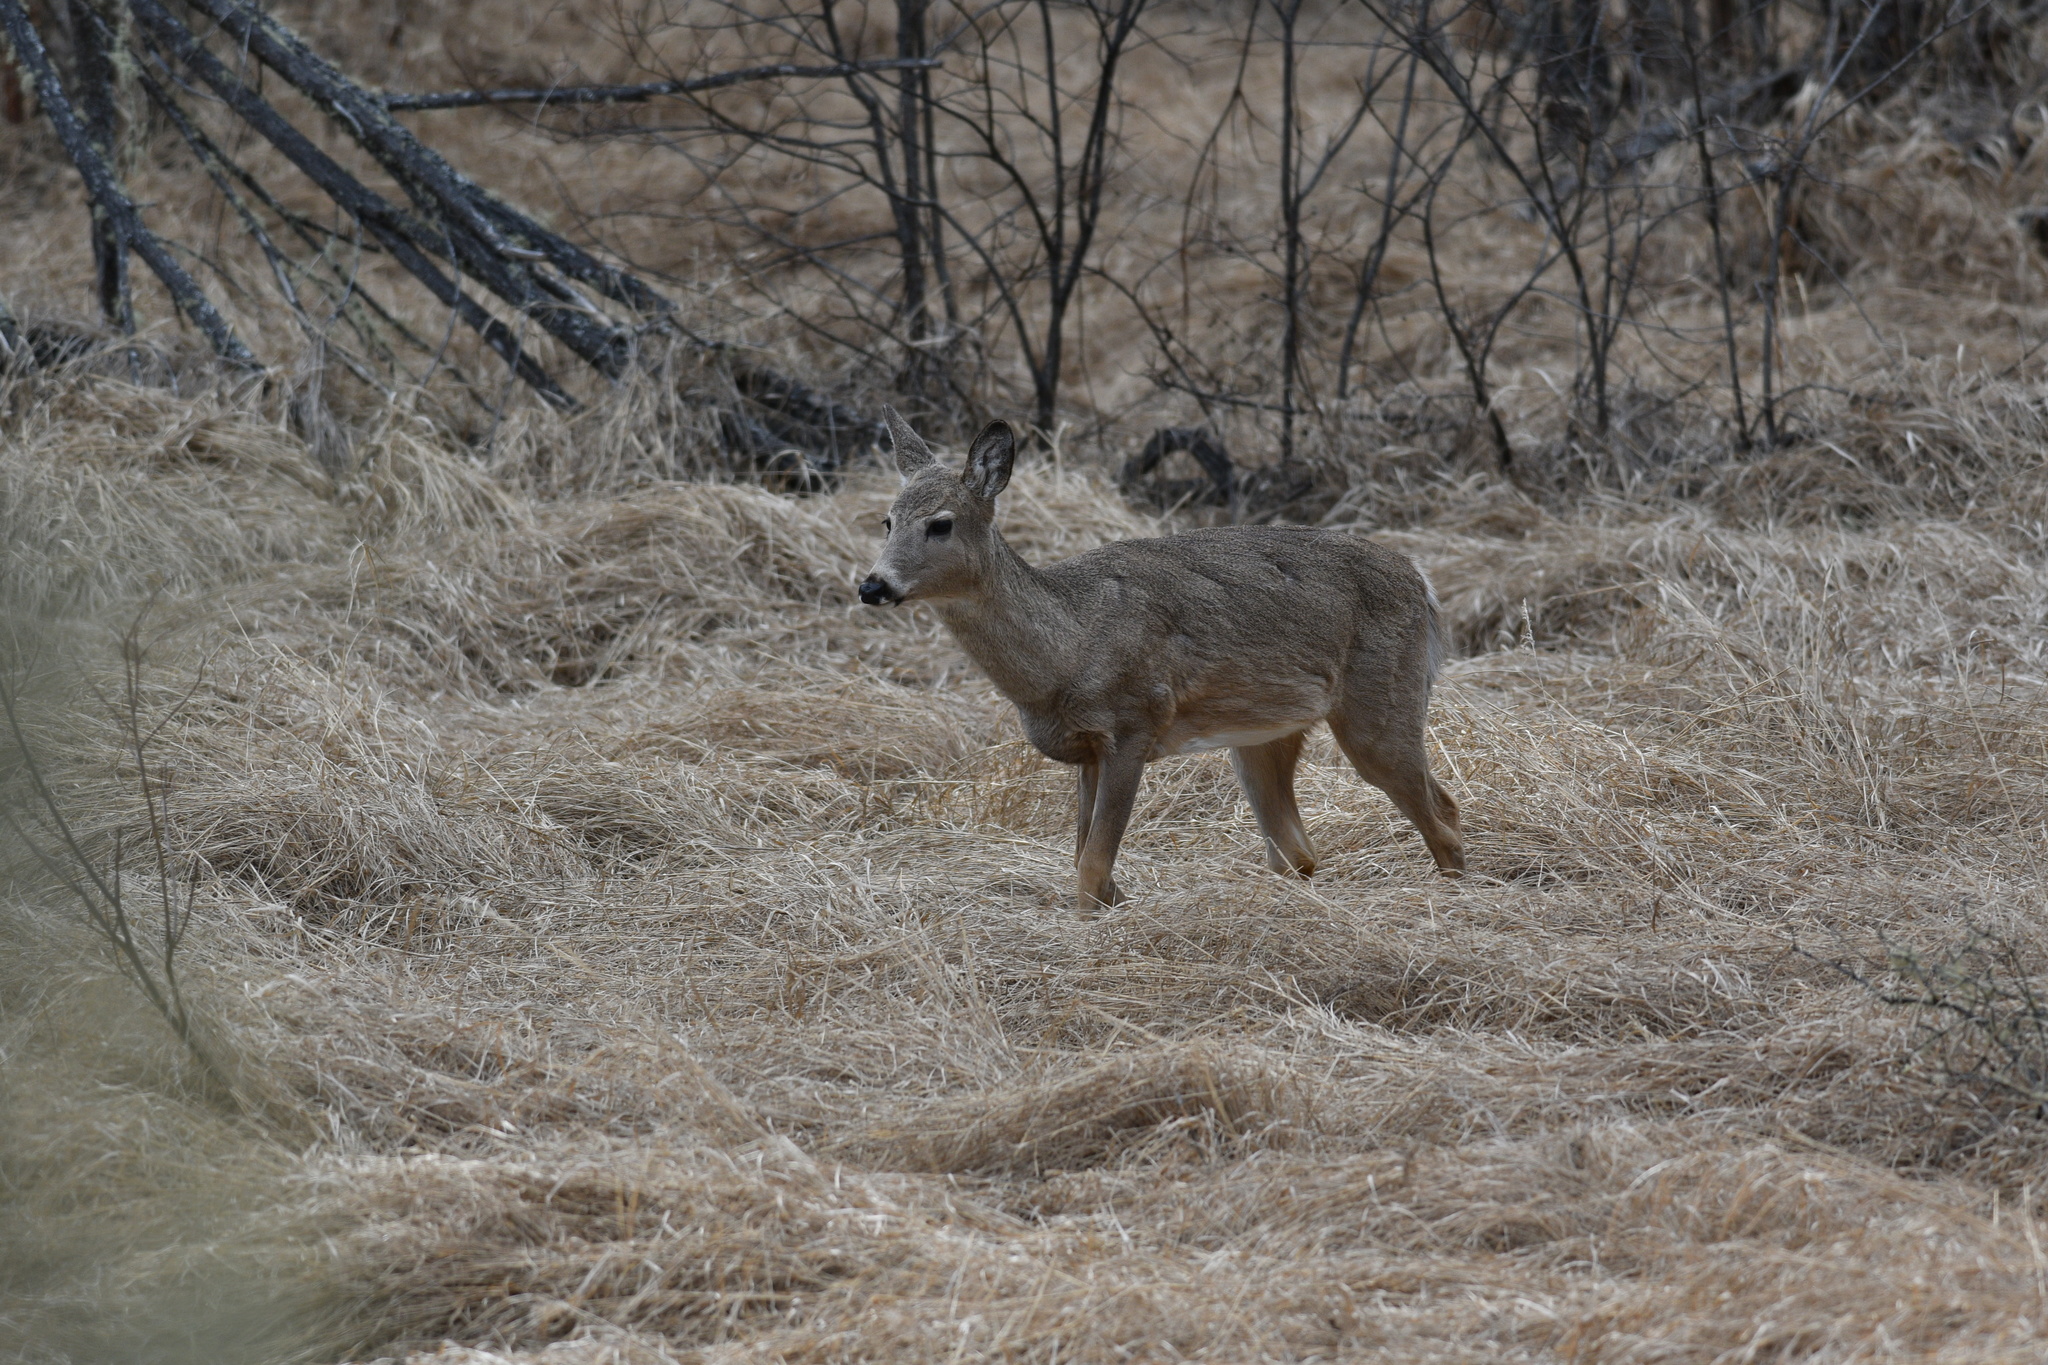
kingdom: Animalia
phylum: Chordata
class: Mammalia
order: Artiodactyla
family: Cervidae
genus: Odocoileus
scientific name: Odocoileus virginianus
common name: White-tailed deer
